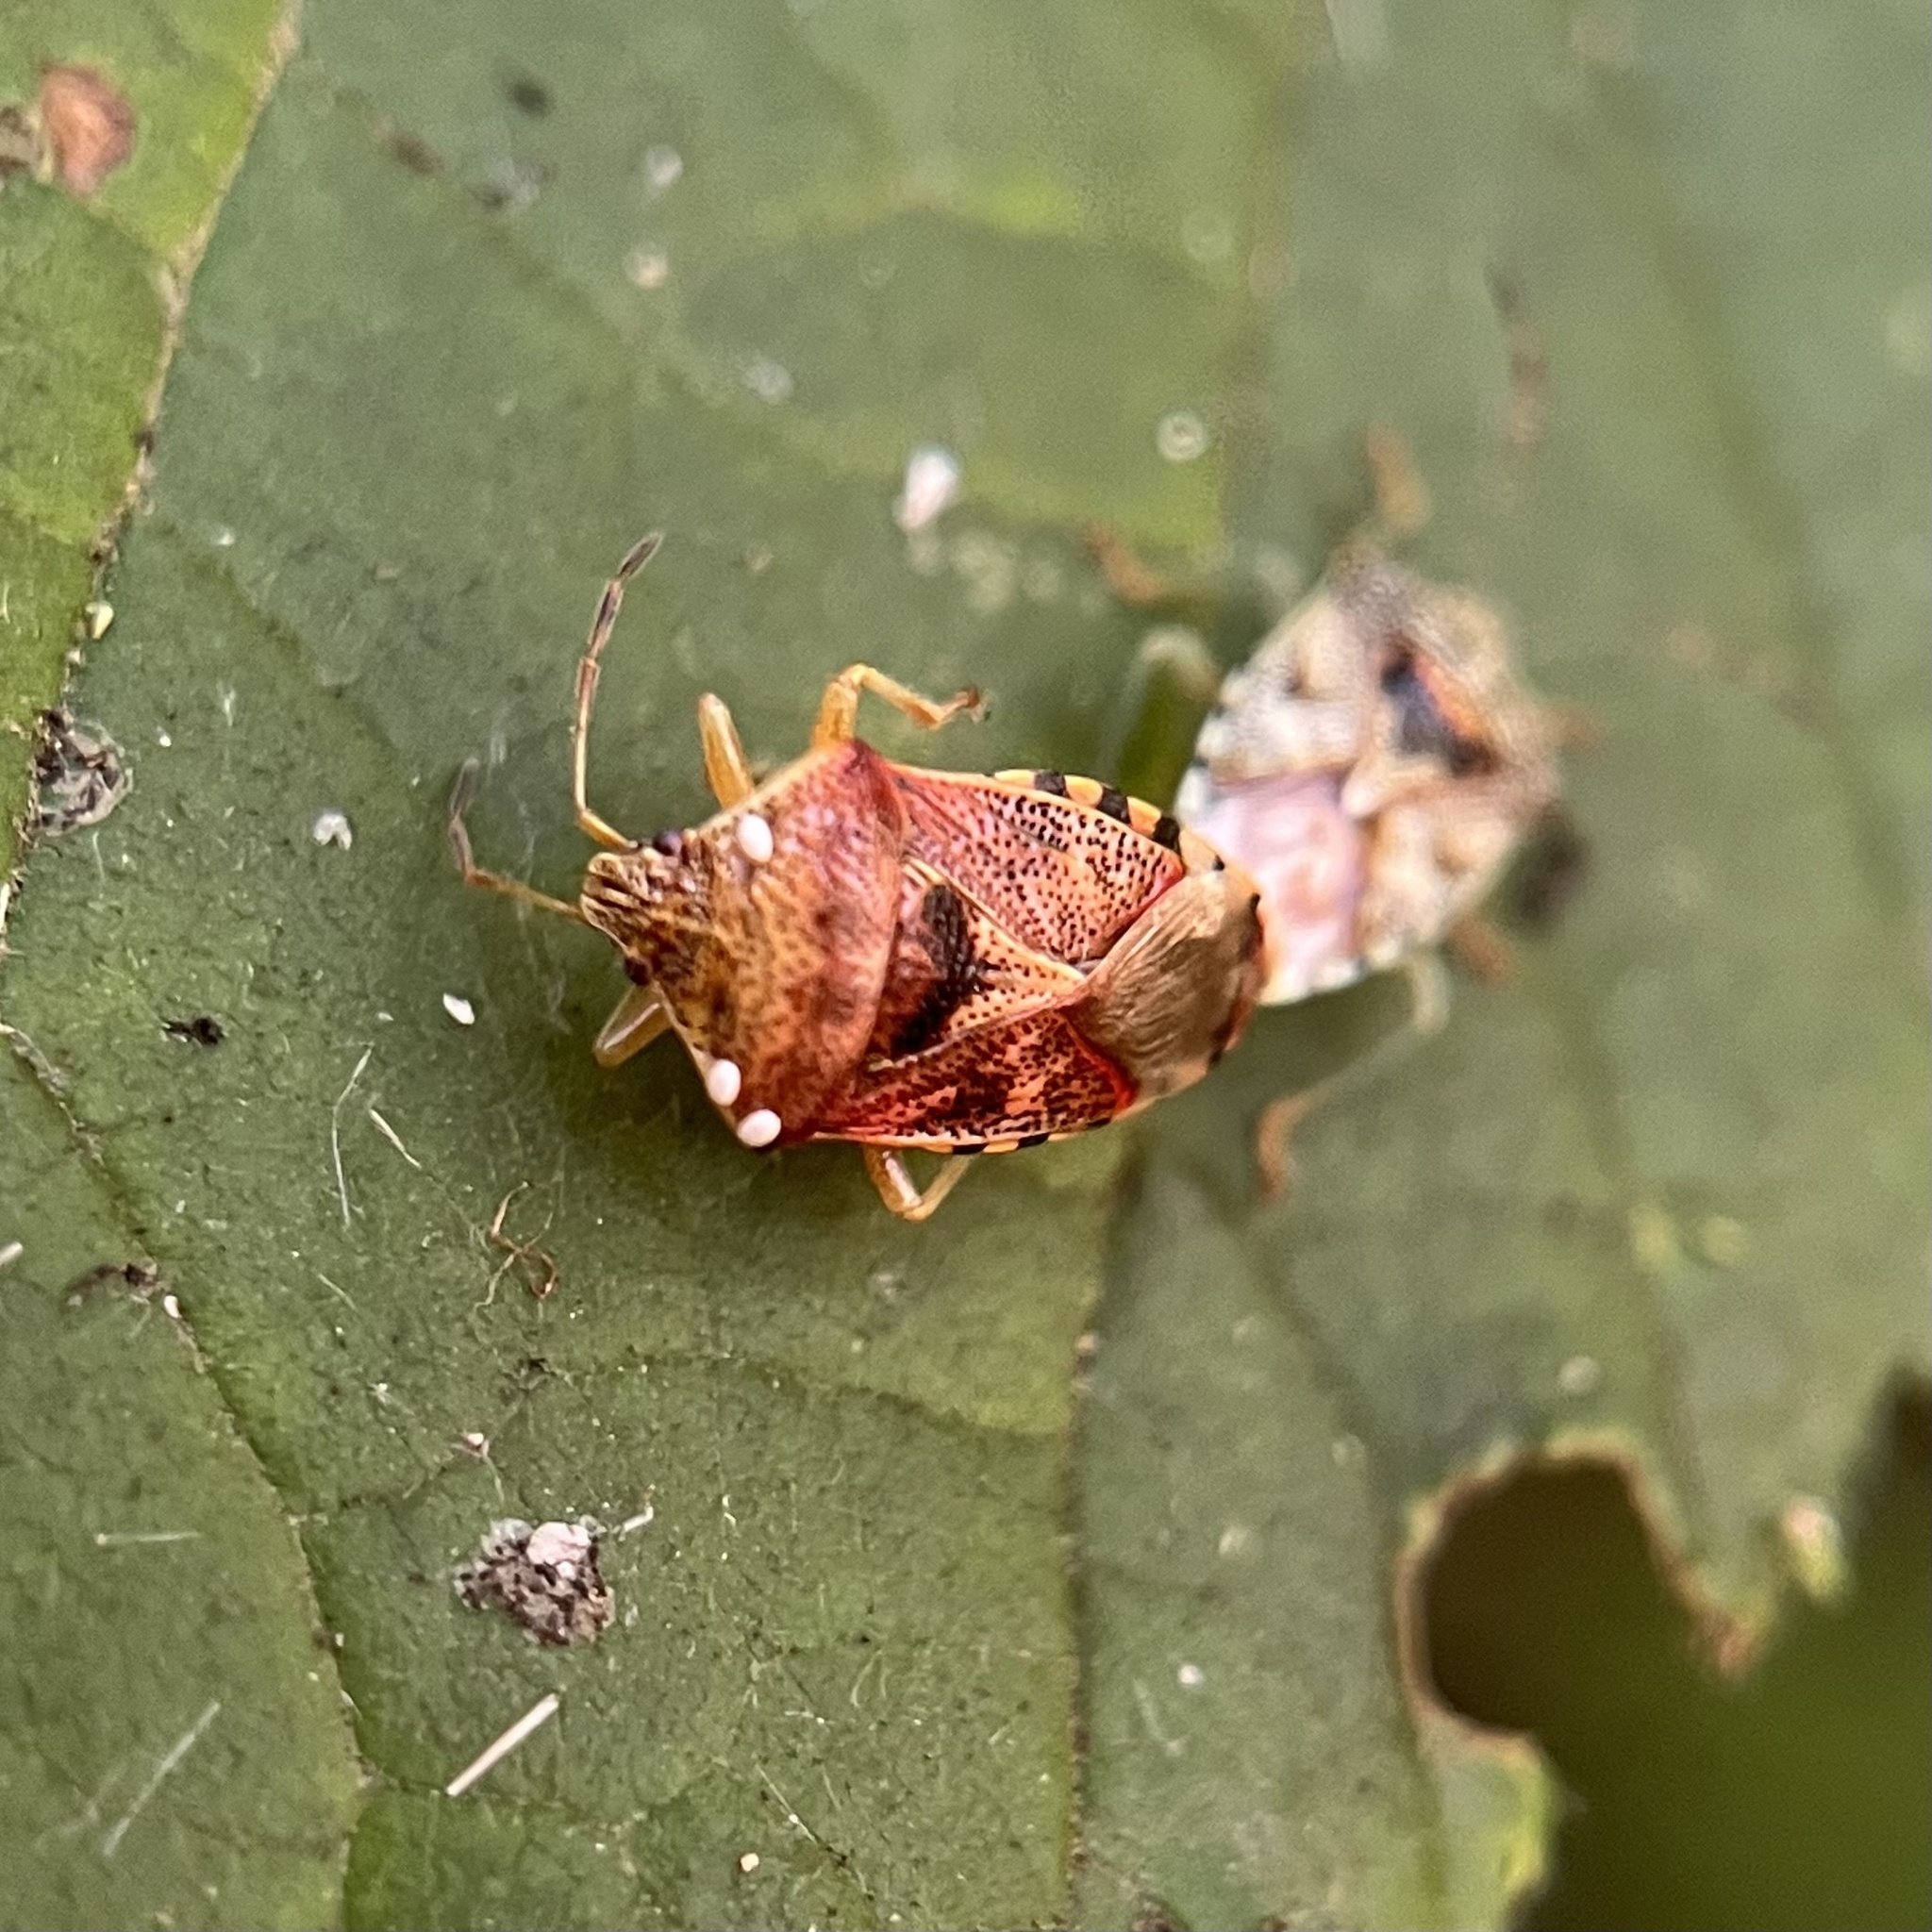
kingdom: Animalia
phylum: Arthropoda
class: Insecta
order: Hemiptera
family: Acanthosomatidae
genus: Elasmucha
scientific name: Elasmucha grisea
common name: Parent bug
